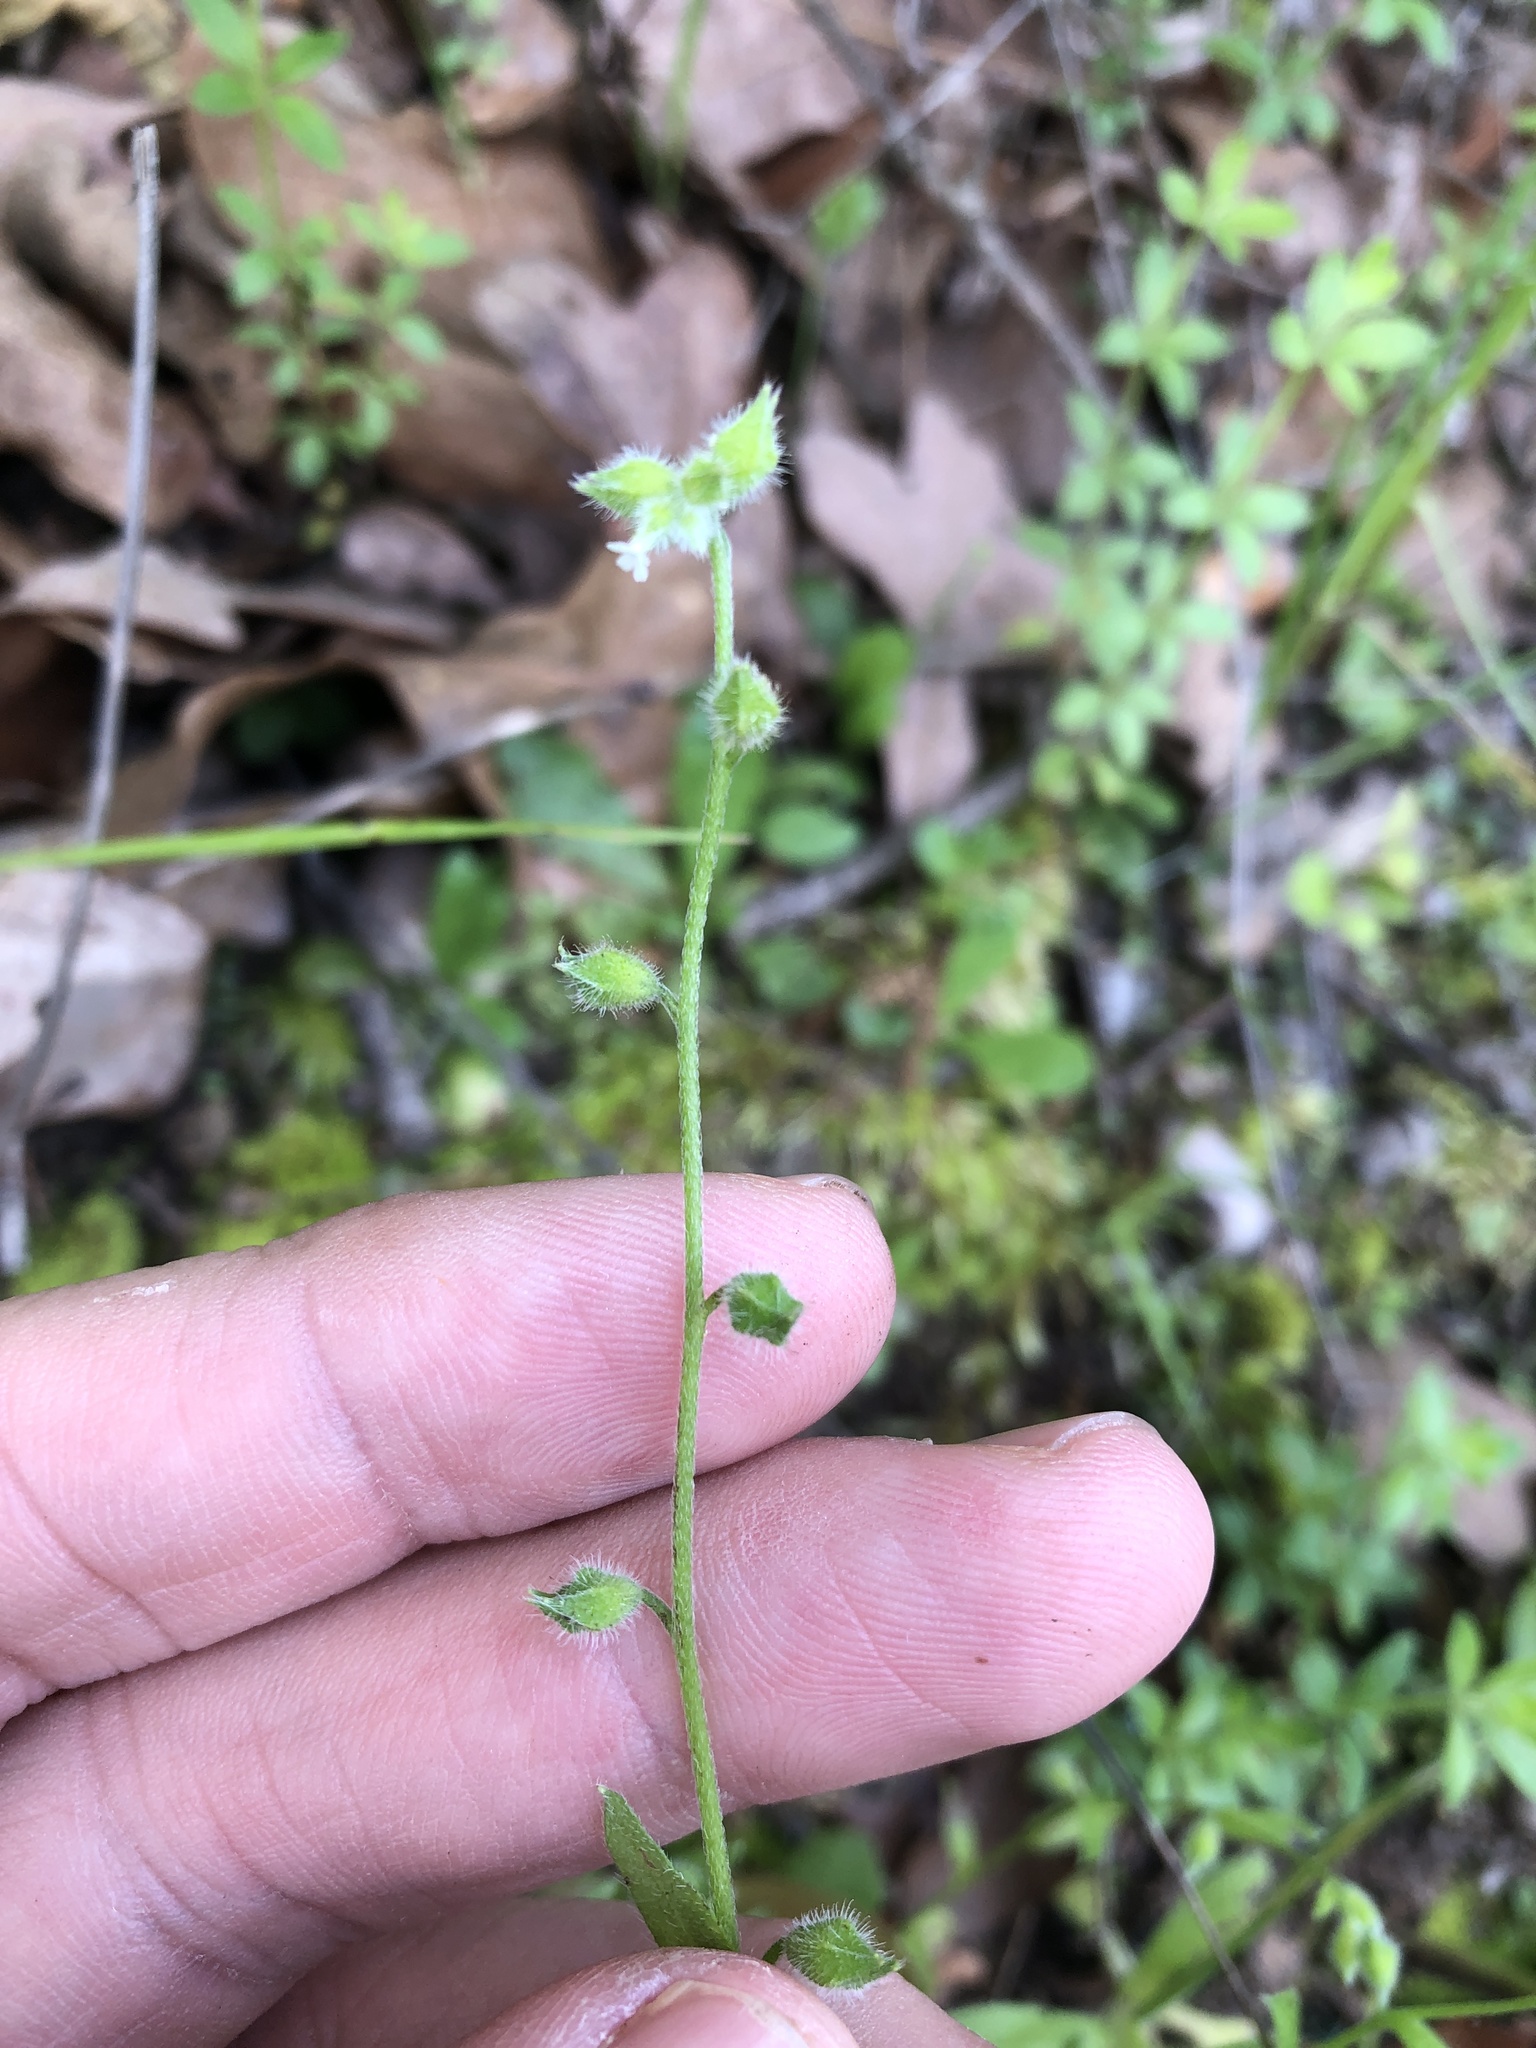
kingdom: Plantae
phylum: Tracheophyta
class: Magnoliopsida
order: Boraginales
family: Boraginaceae
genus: Myosotis
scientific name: Myosotis macrosperma
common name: Large-seed forget-me-not
